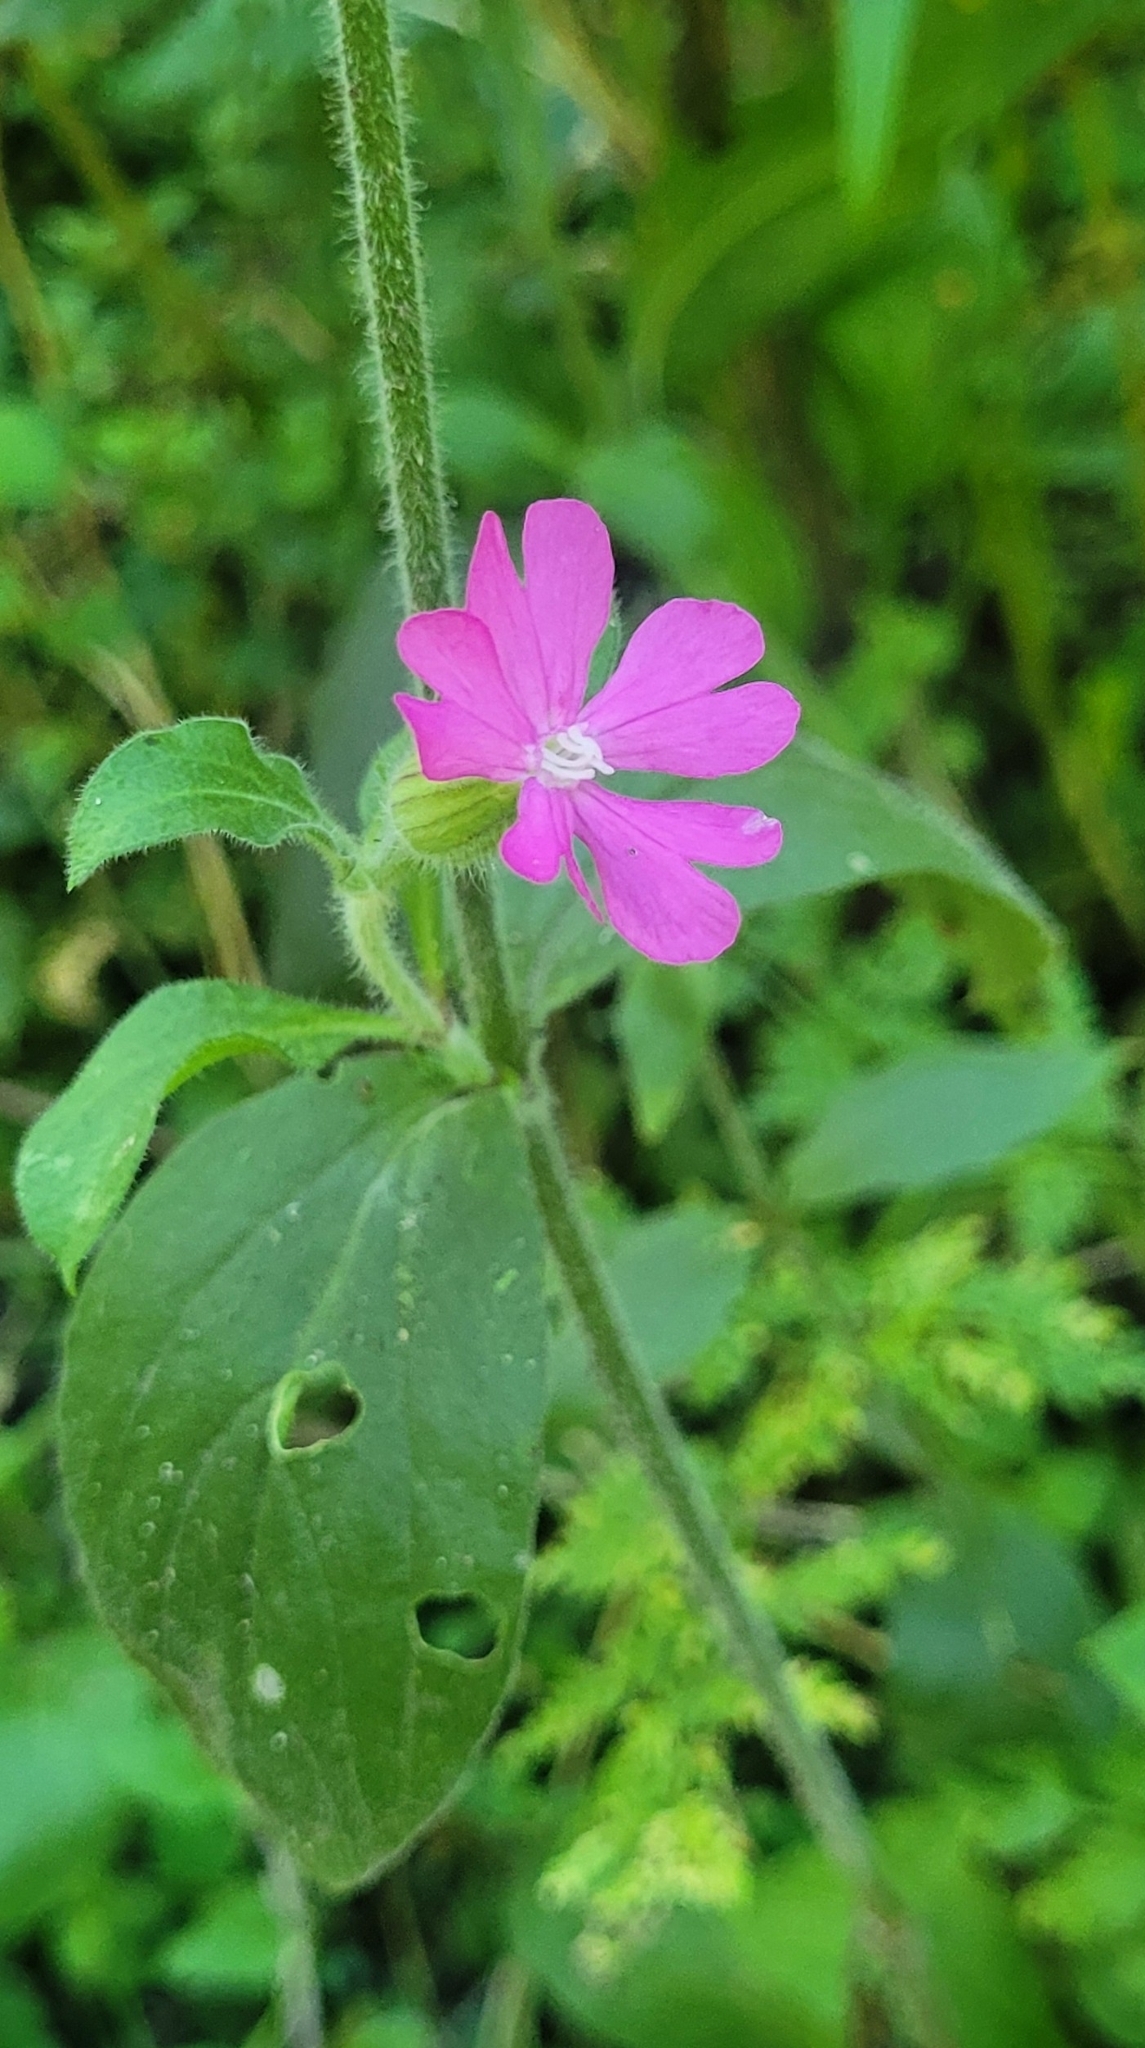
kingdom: Plantae
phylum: Tracheophyta
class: Magnoliopsida
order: Caryophyllales
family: Caryophyllaceae
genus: Silene
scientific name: Silene dioica
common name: Red campion
